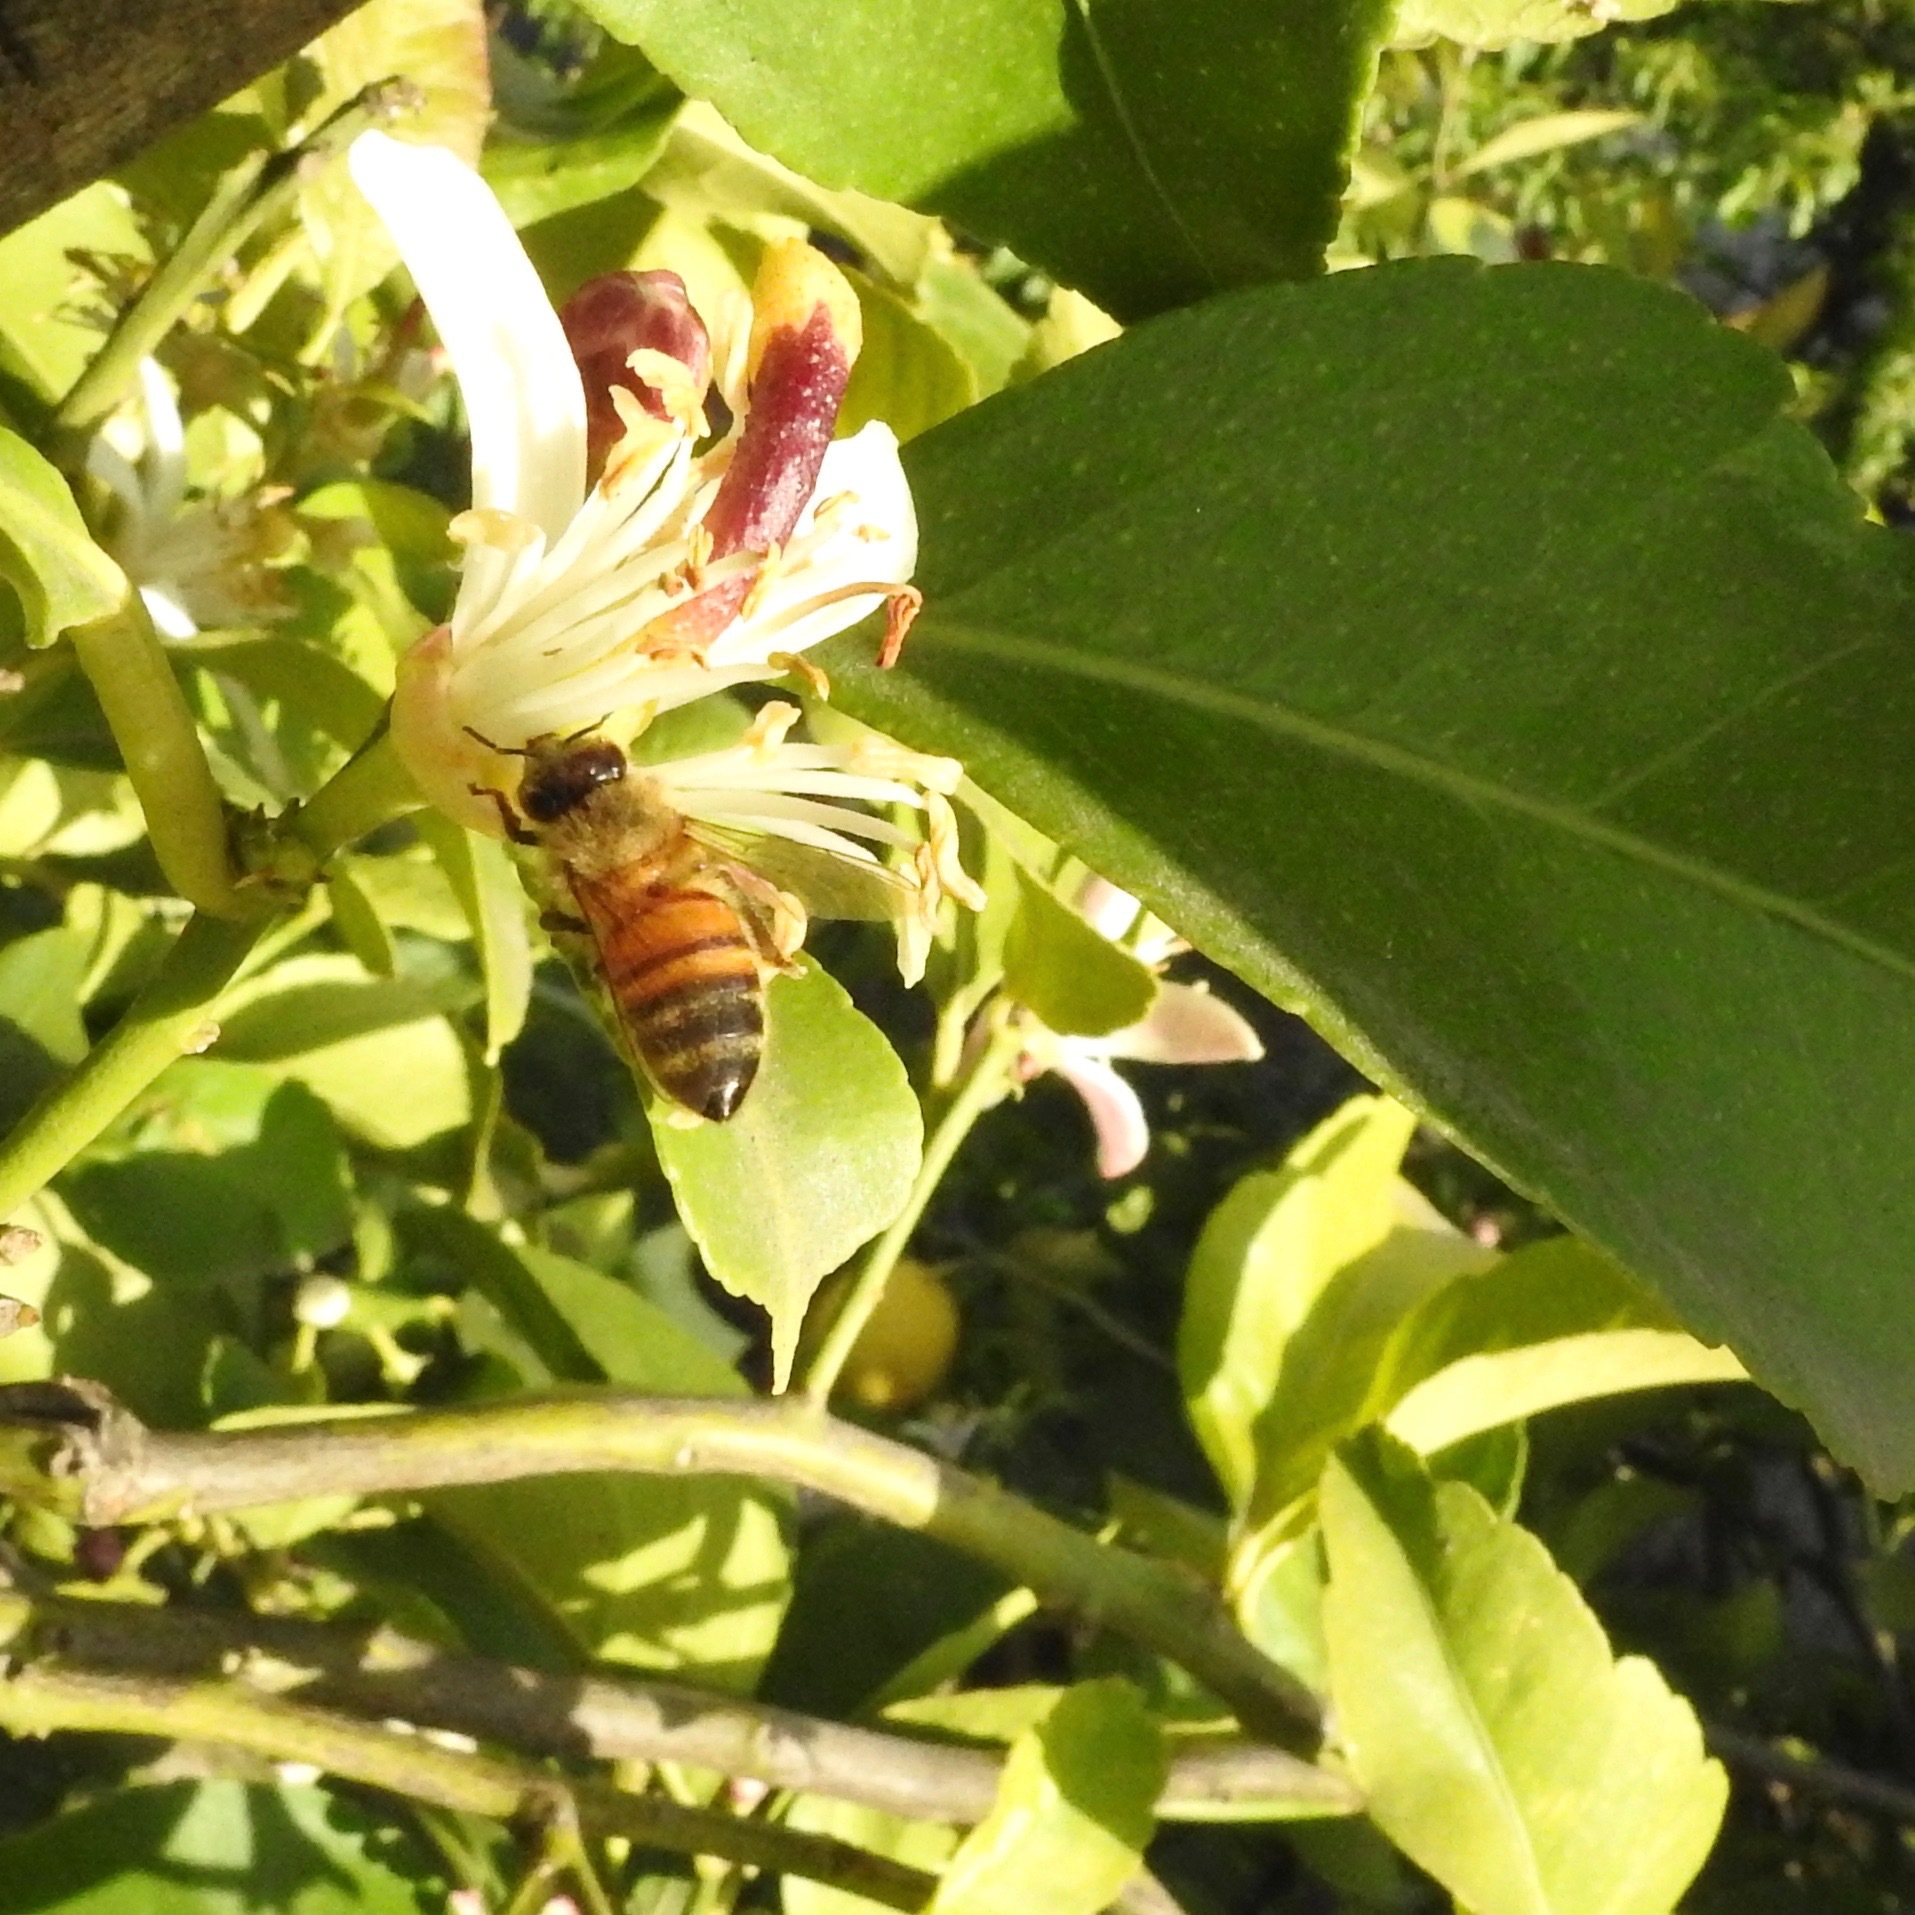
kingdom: Animalia
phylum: Arthropoda
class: Insecta
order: Hymenoptera
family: Apidae
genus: Apis
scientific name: Apis mellifera
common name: Honey bee
